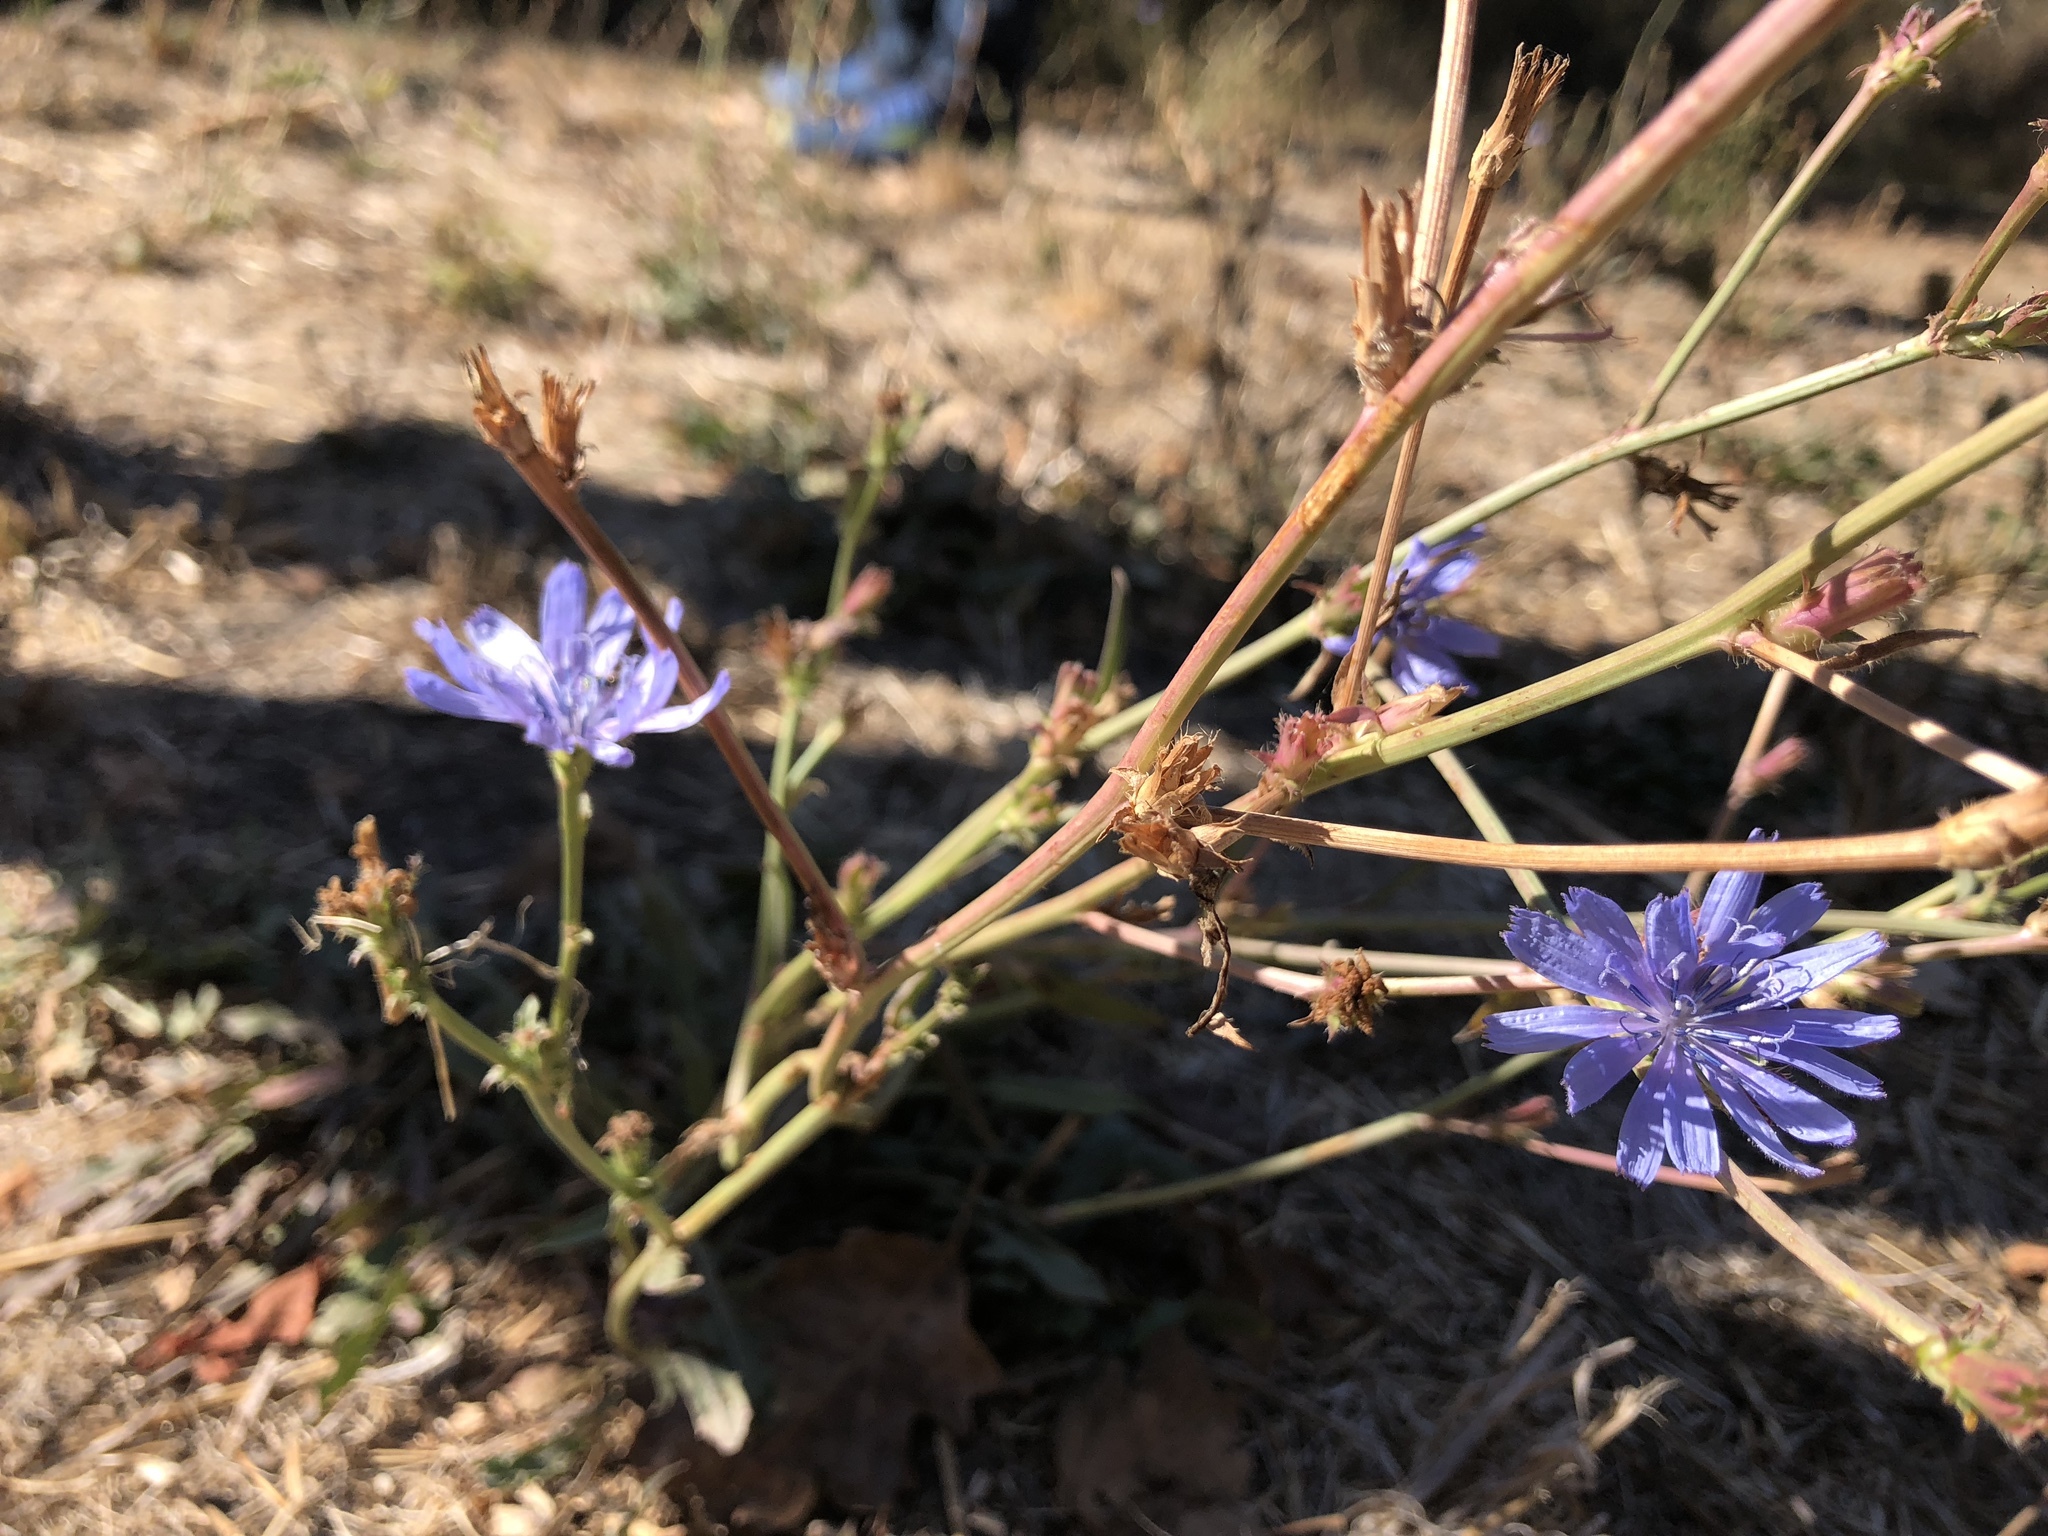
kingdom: Plantae
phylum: Tracheophyta
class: Magnoliopsida
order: Asterales
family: Asteraceae
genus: Cichorium
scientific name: Cichorium intybus
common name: Chicory
